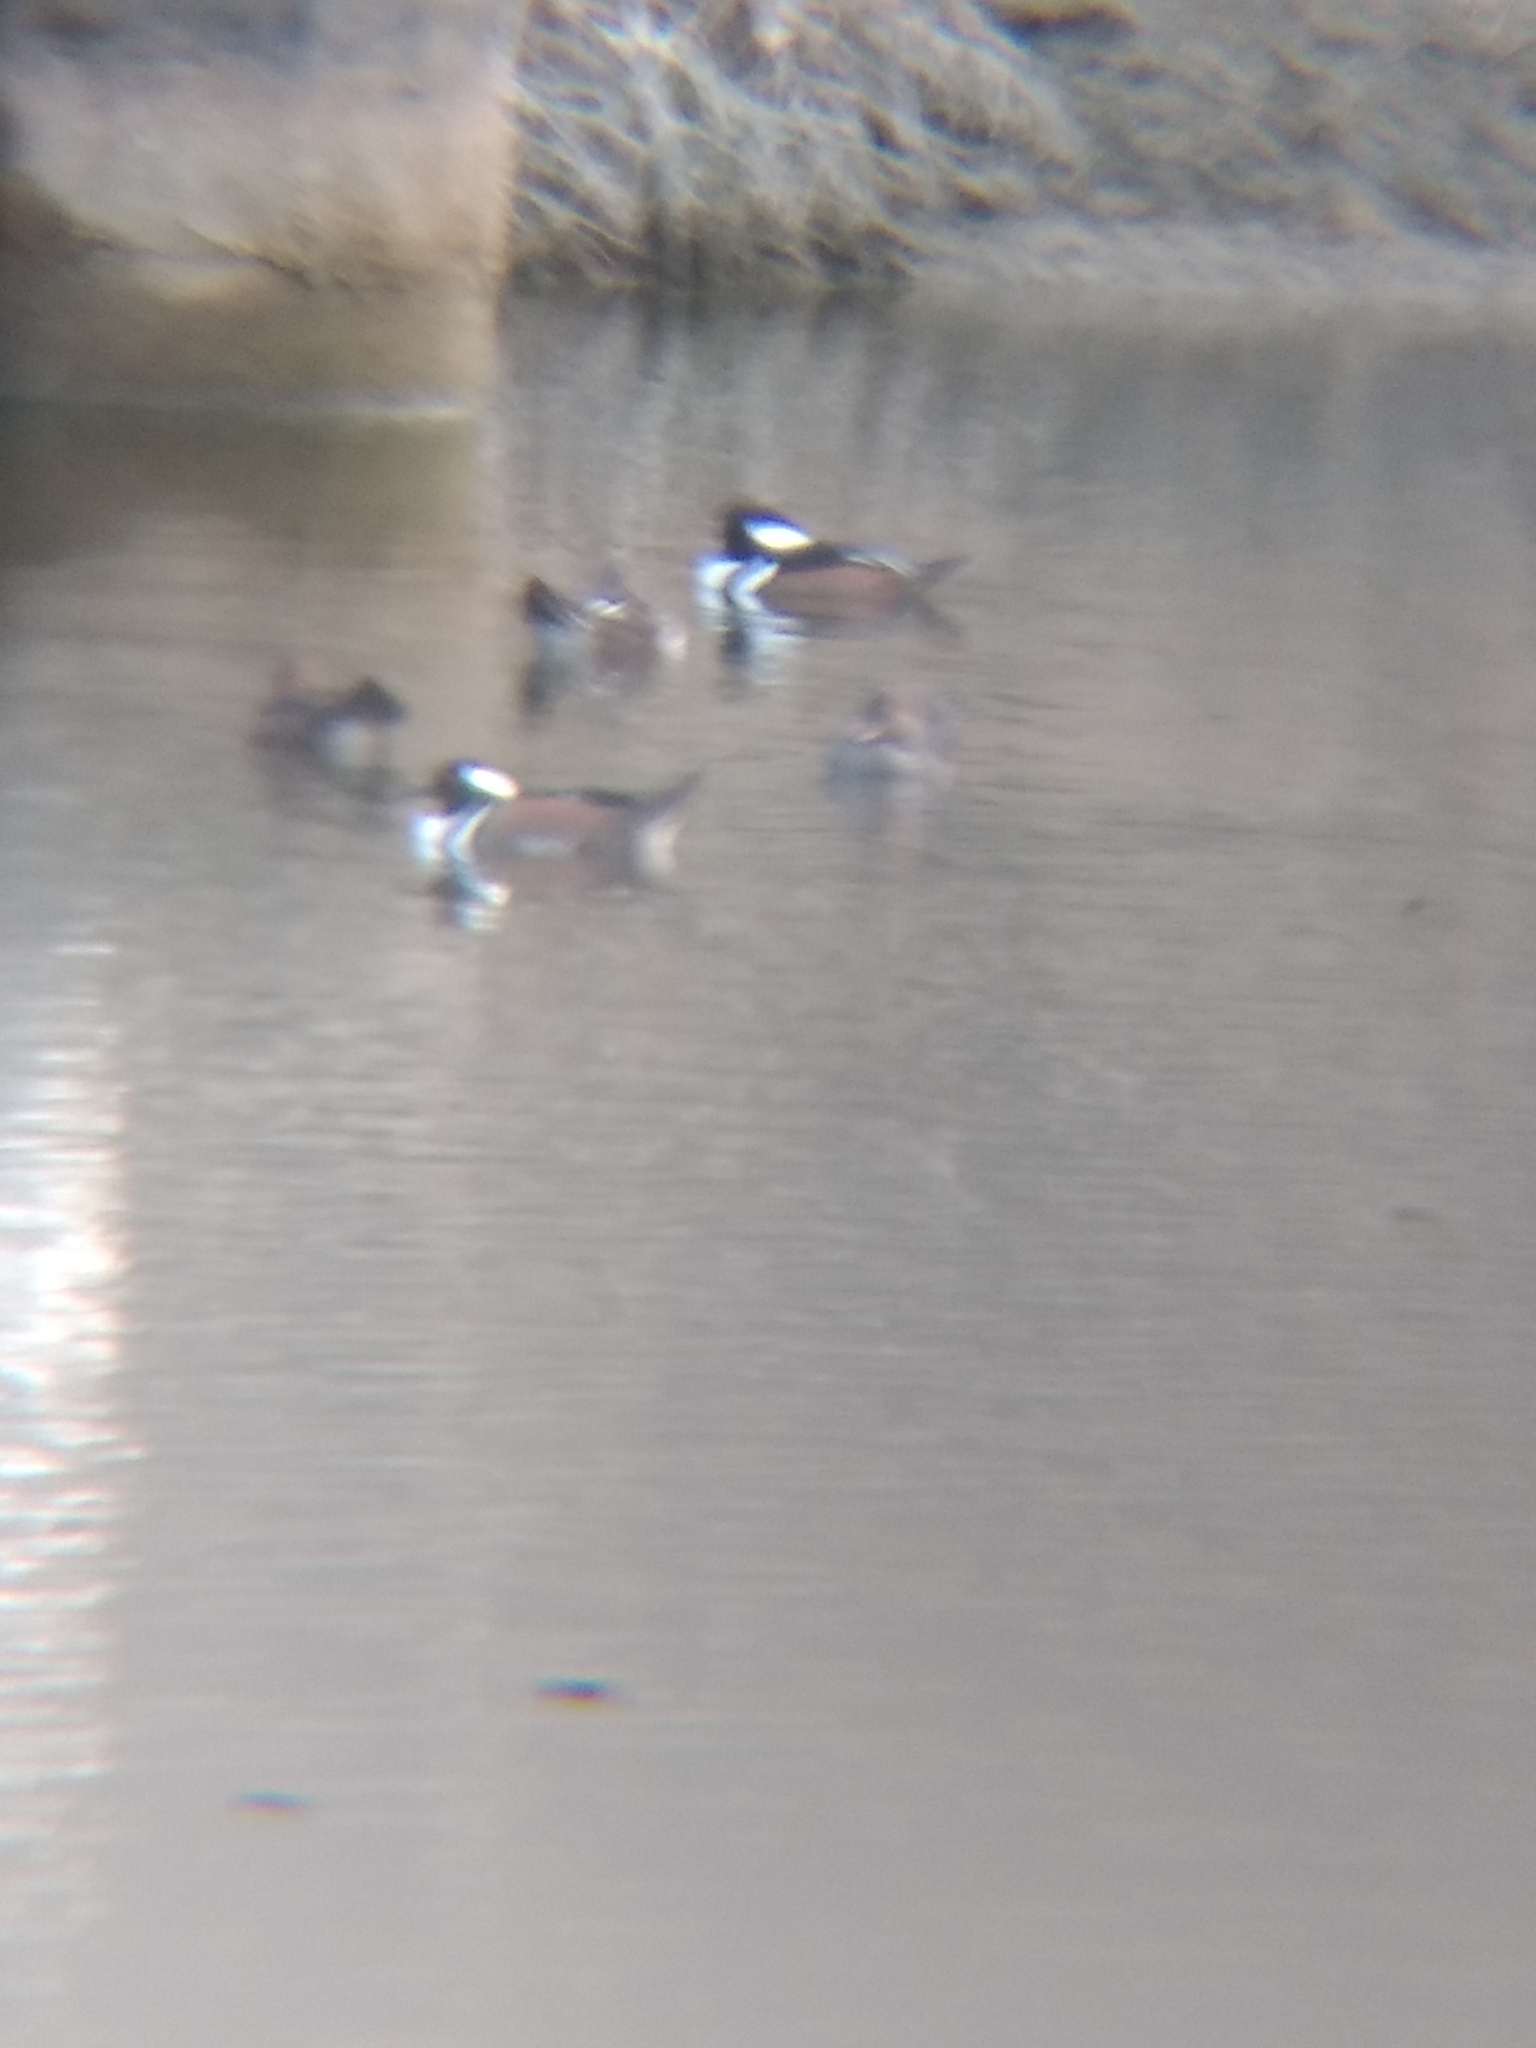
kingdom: Animalia
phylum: Chordata
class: Aves
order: Anseriformes
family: Anatidae
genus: Lophodytes
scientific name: Lophodytes cucullatus
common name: Hooded merganser
